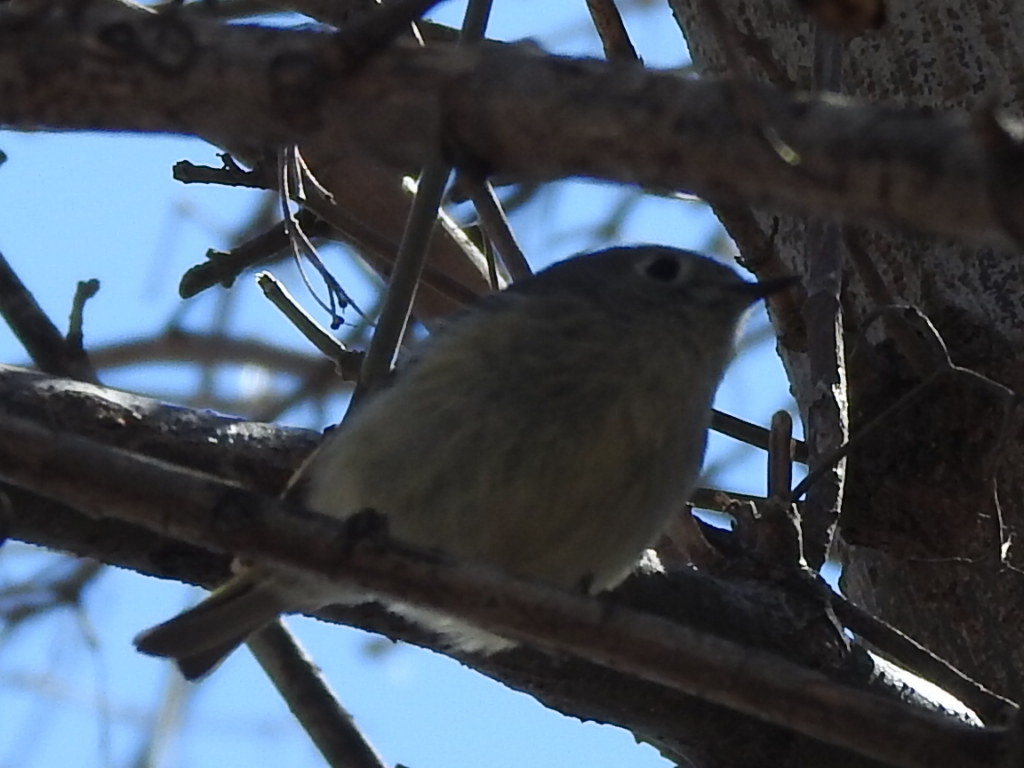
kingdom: Animalia
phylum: Chordata
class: Aves
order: Passeriformes
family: Regulidae
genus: Regulus
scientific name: Regulus calendula
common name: Ruby-crowned kinglet
